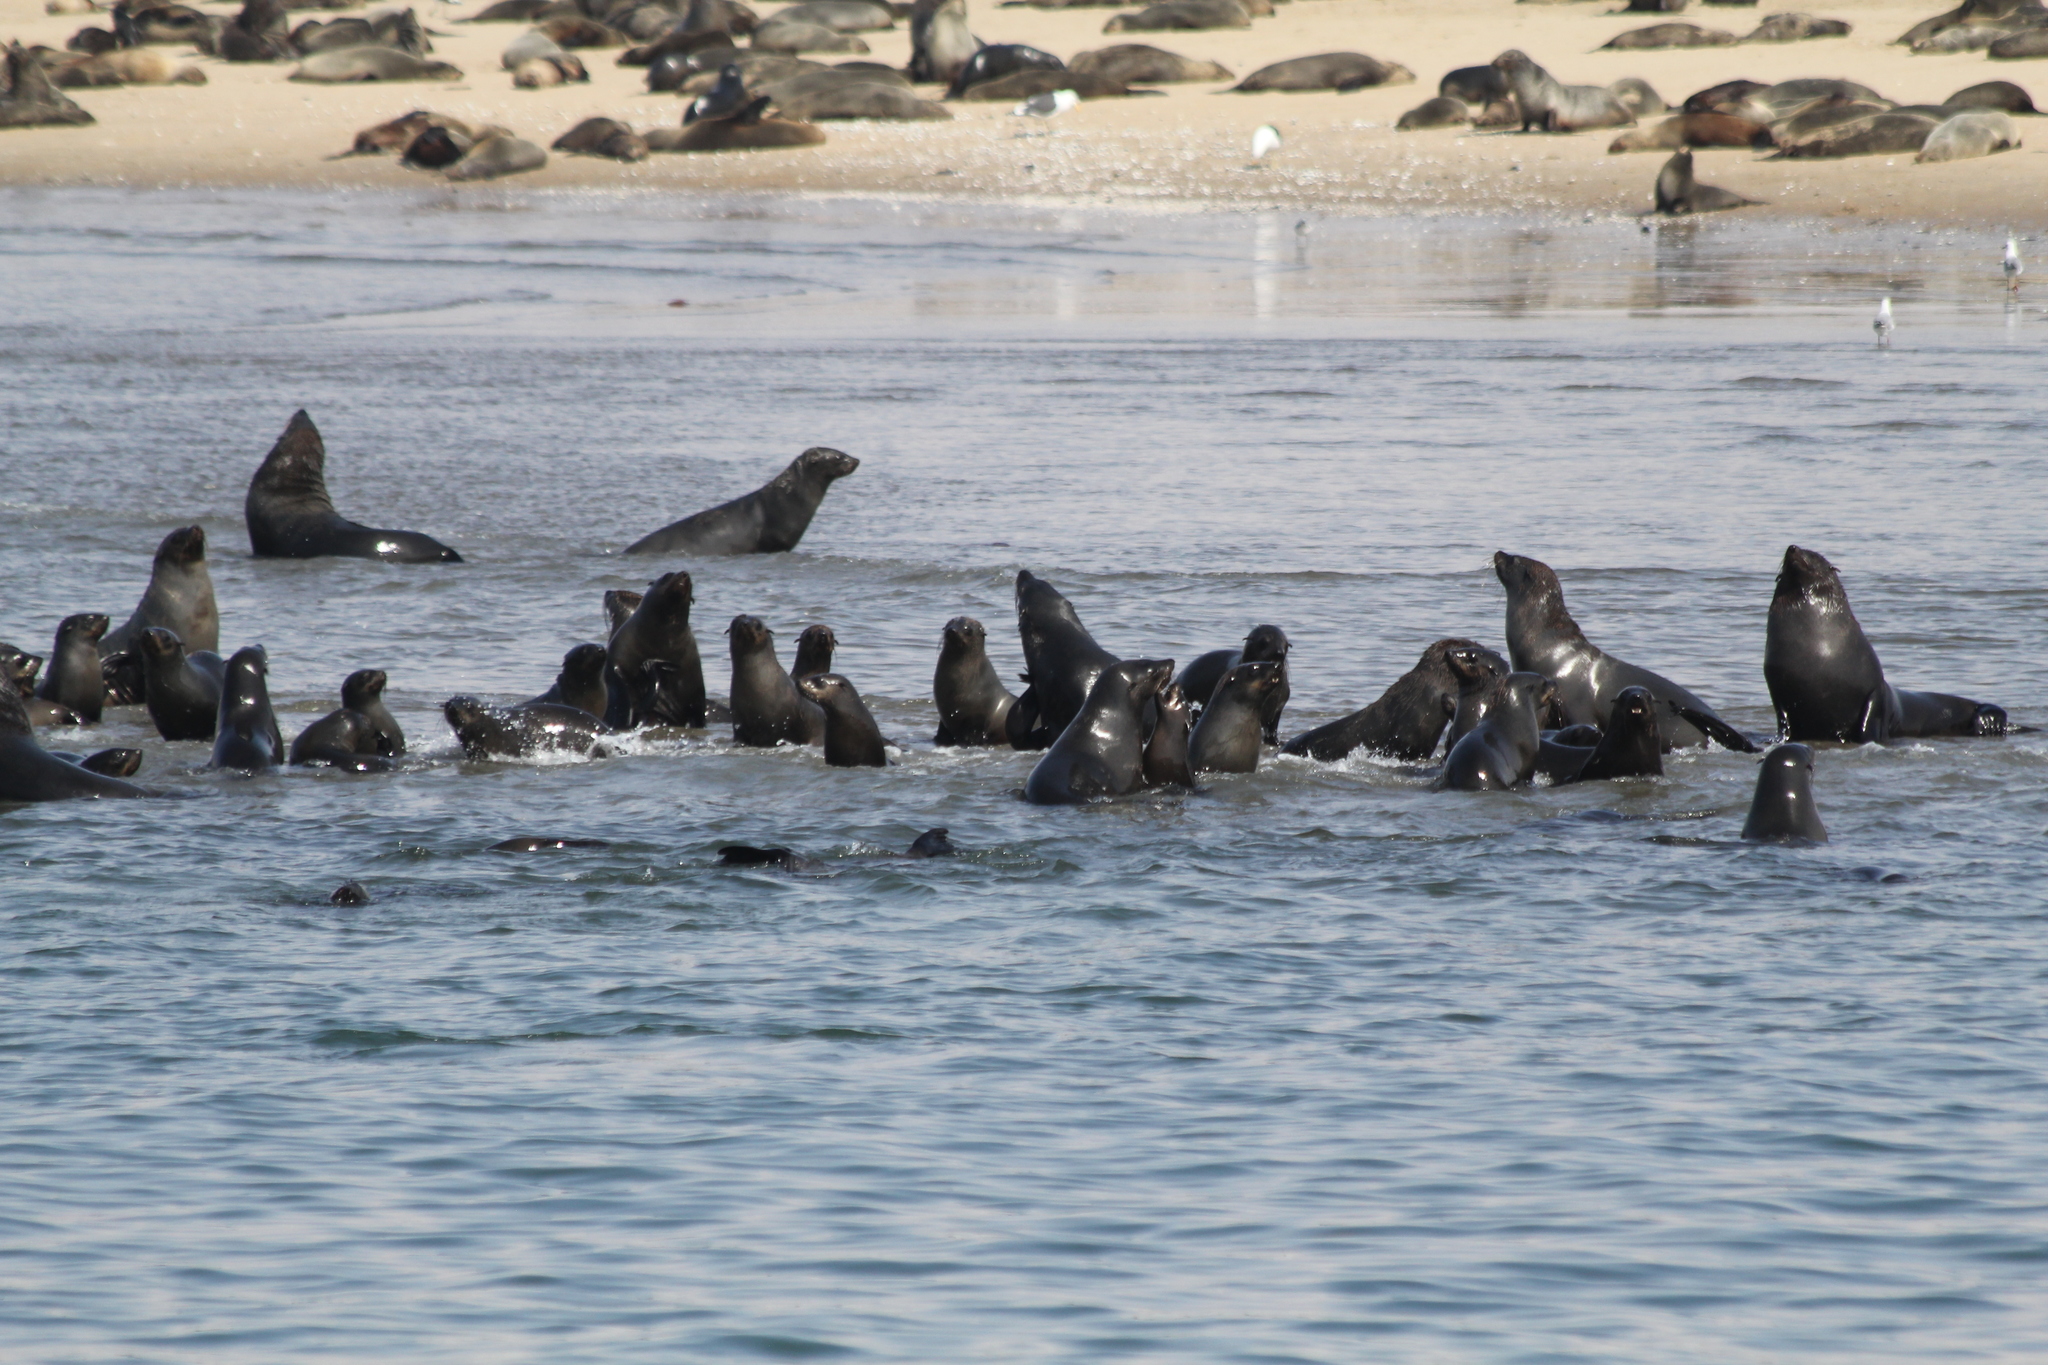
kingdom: Animalia
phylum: Chordata
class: Mammalia
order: Carnivora
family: Otariidae
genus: Arctocephalus
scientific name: Arctocephalus pusillus
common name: Brown fur seal
